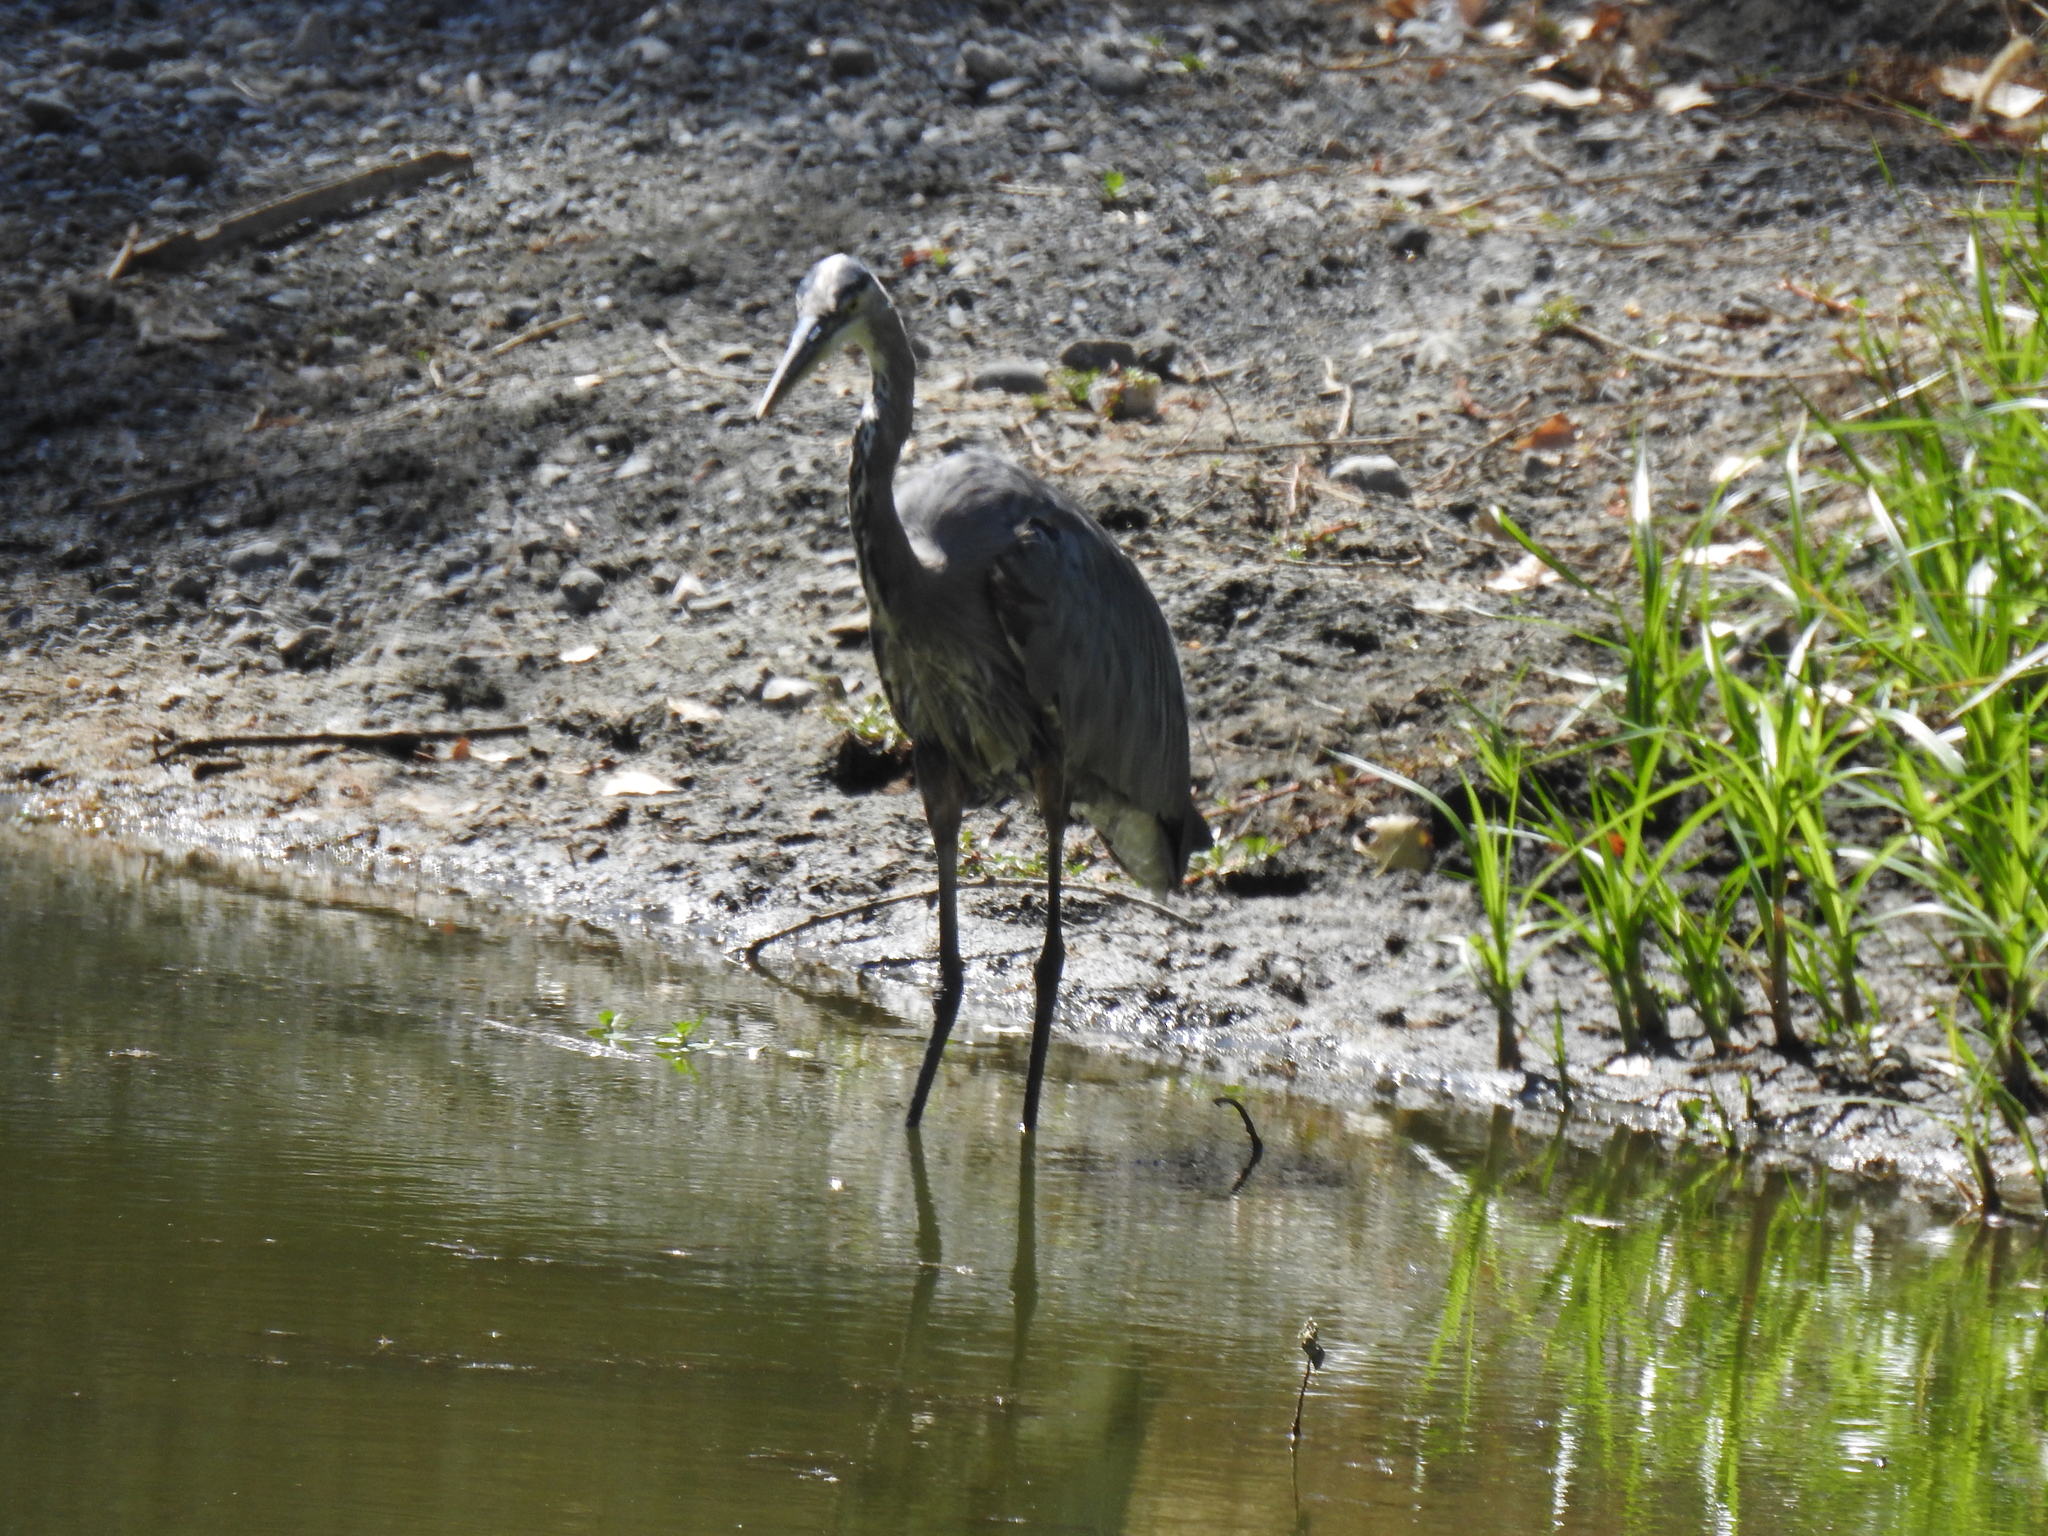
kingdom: Animalia
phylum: Chordata
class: Aves
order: Pelecaniformes
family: Ardeidae
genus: Ardea
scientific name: Ardea herodias
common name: Great blue heron
